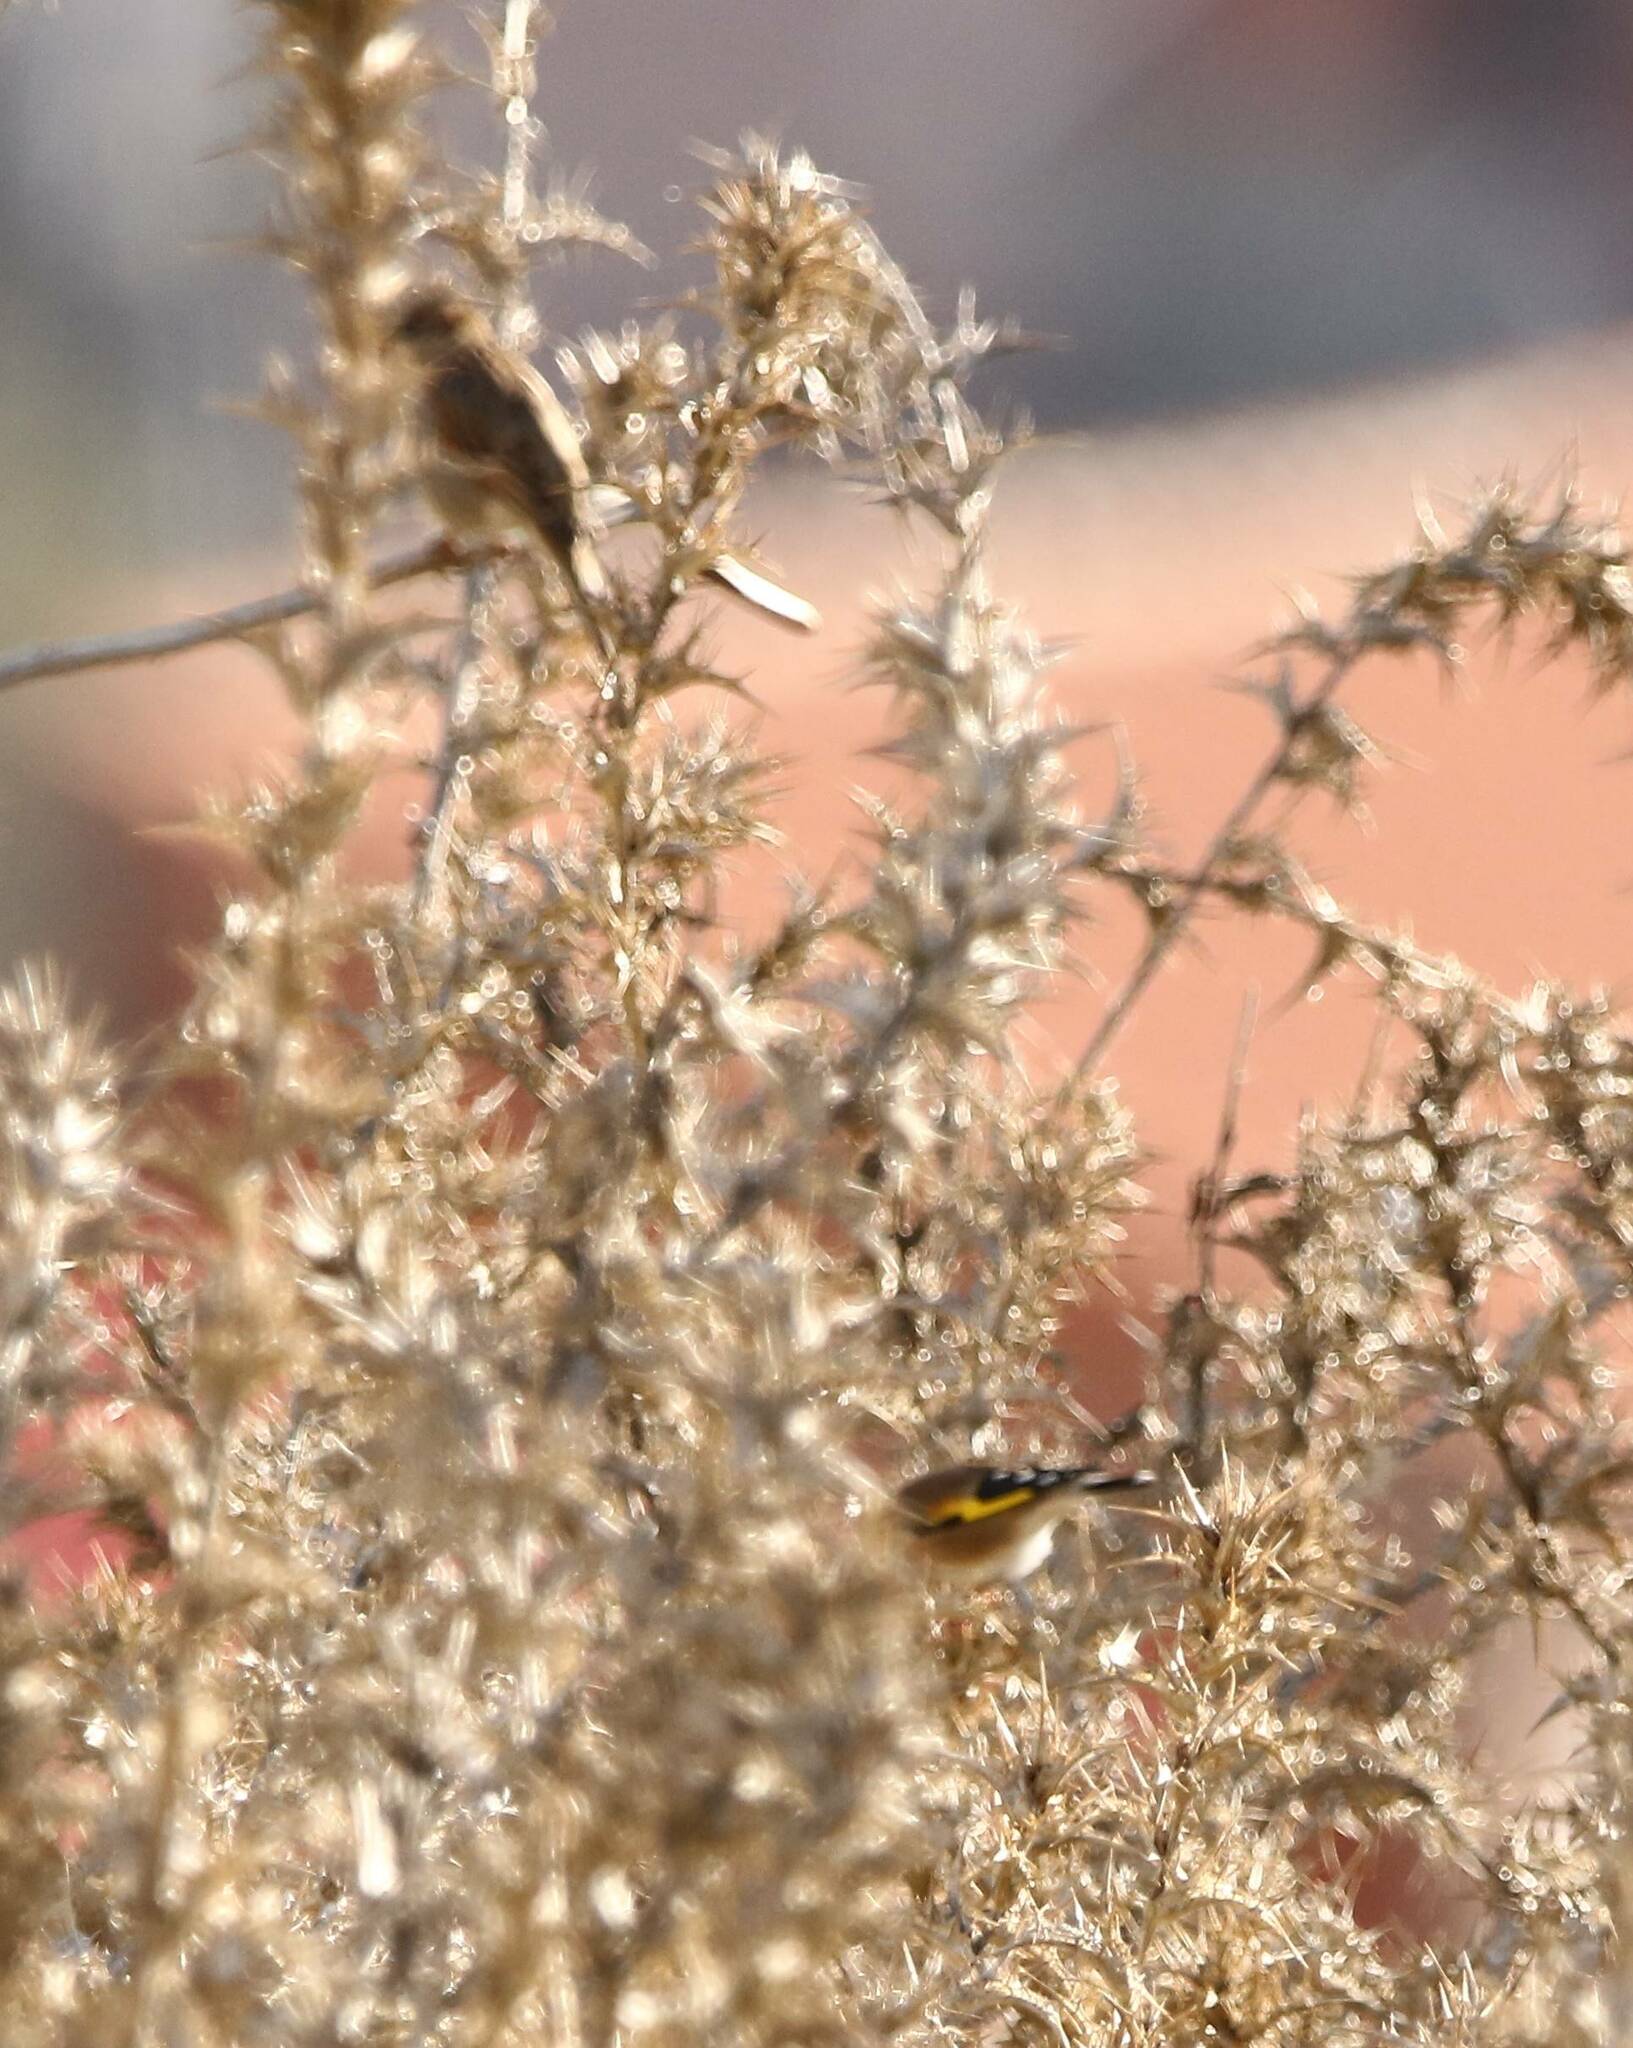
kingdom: Animalia
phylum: Chordata
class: Aves
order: Passeriformes
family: Fringillidae
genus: Carduelis
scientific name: Carduelis carduelis
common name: European goldfinch
